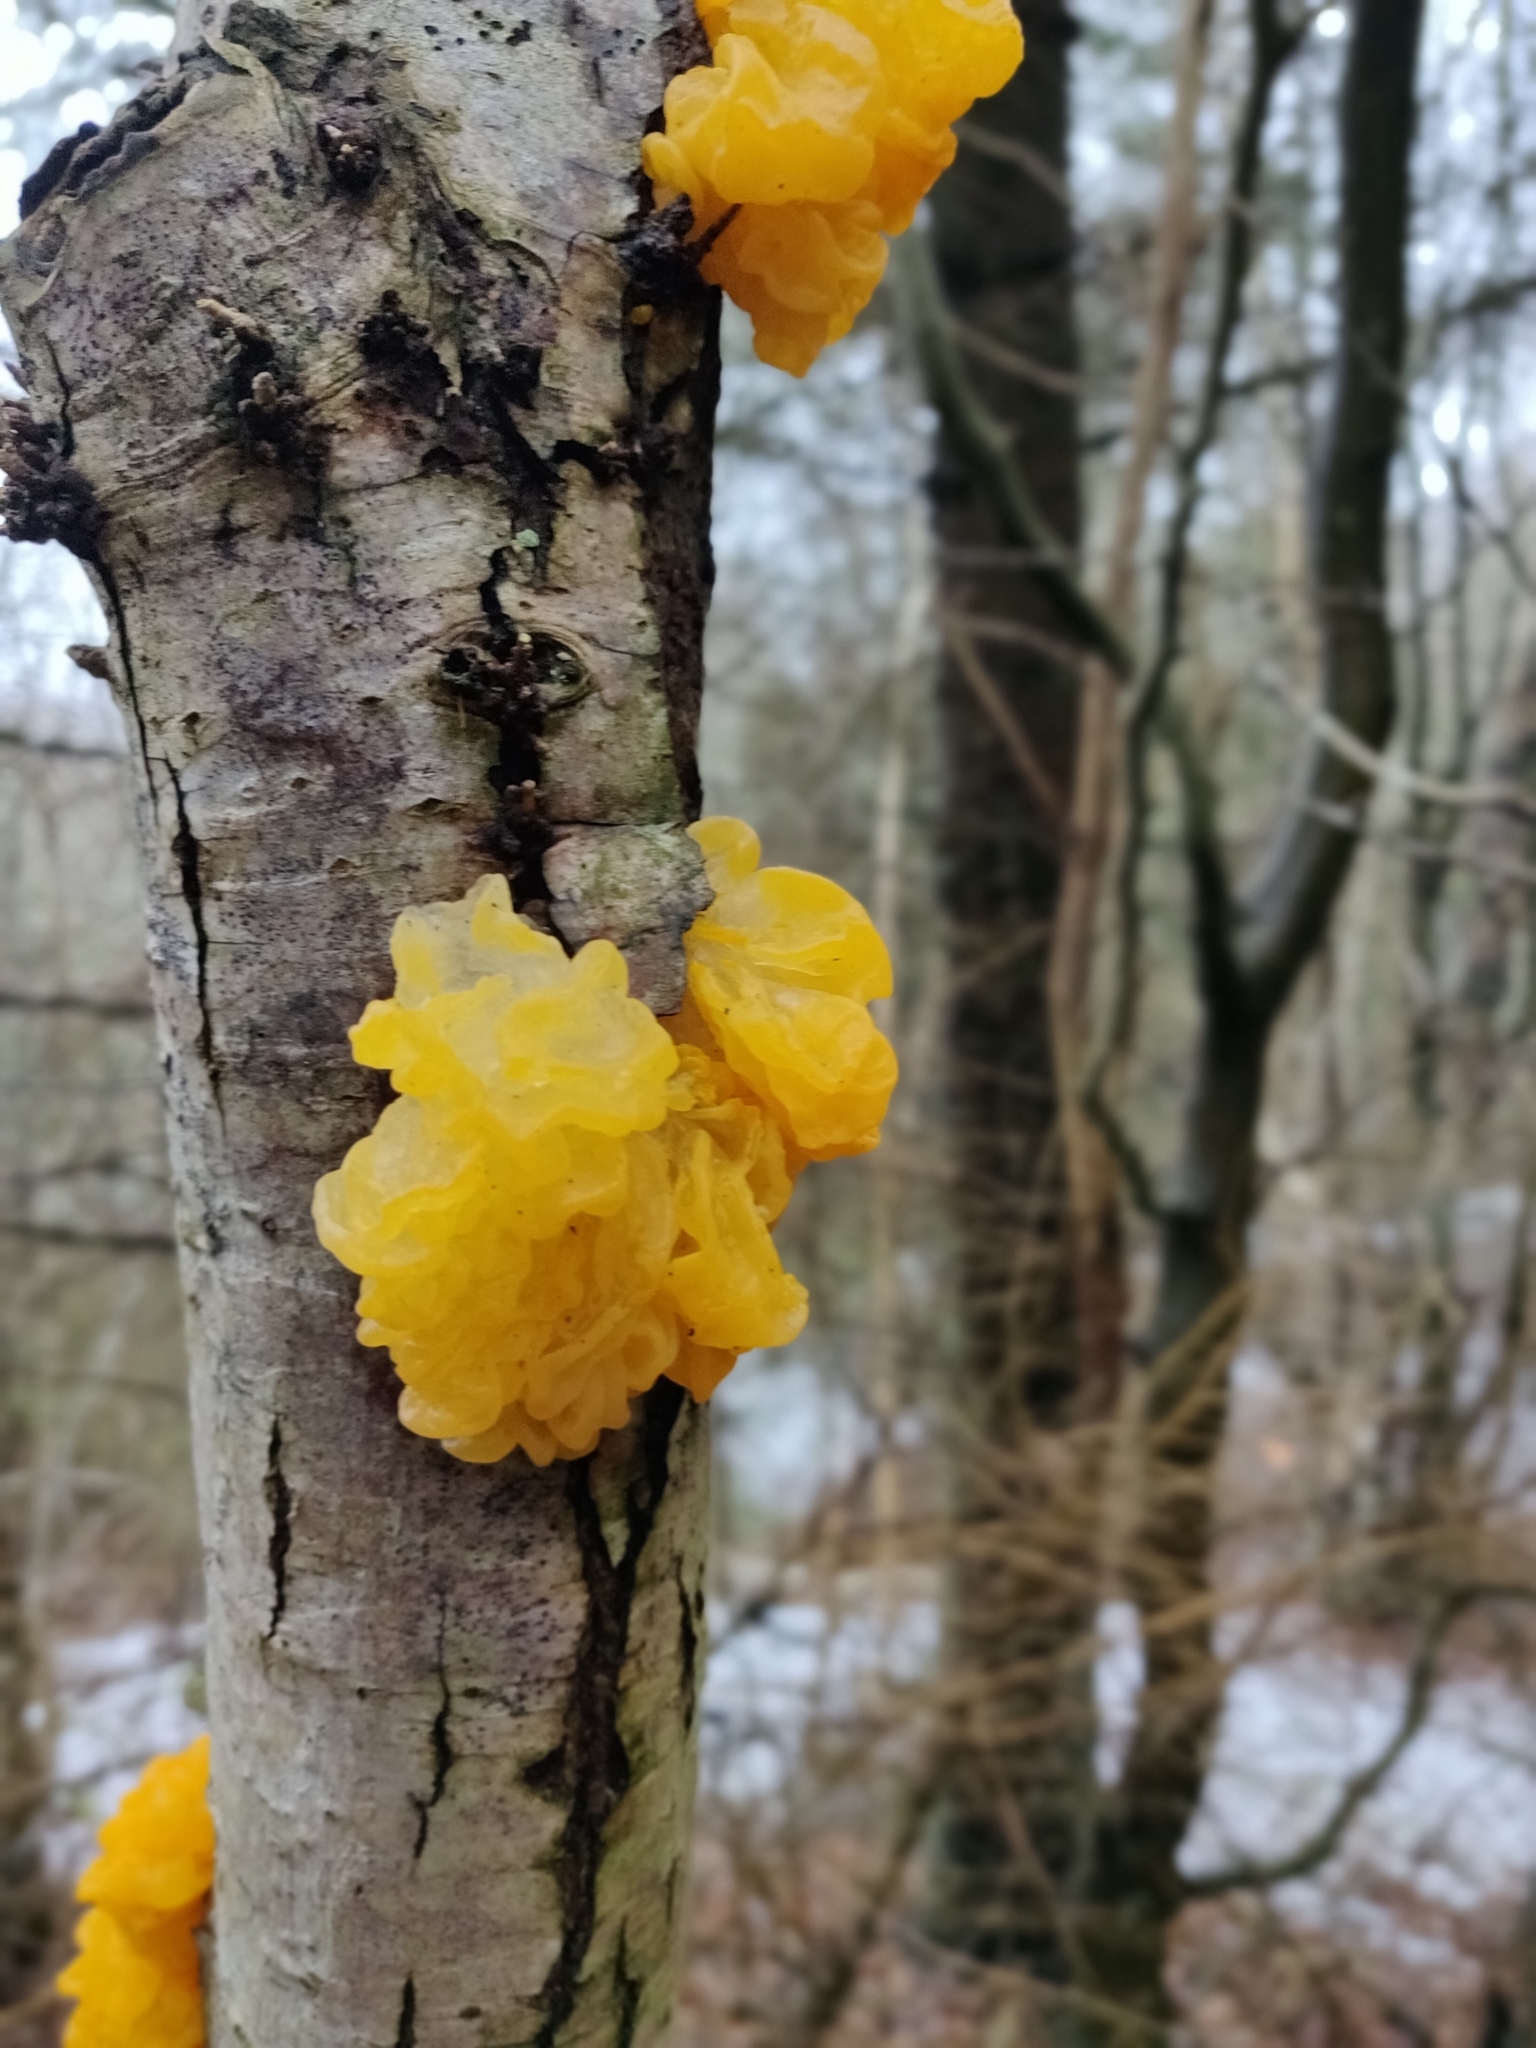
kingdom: Fungi
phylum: Basidiomycota
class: Tremellomycetes
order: Tremellales
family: Tremellaceae
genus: Tremella
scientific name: Tremella mesenterica
